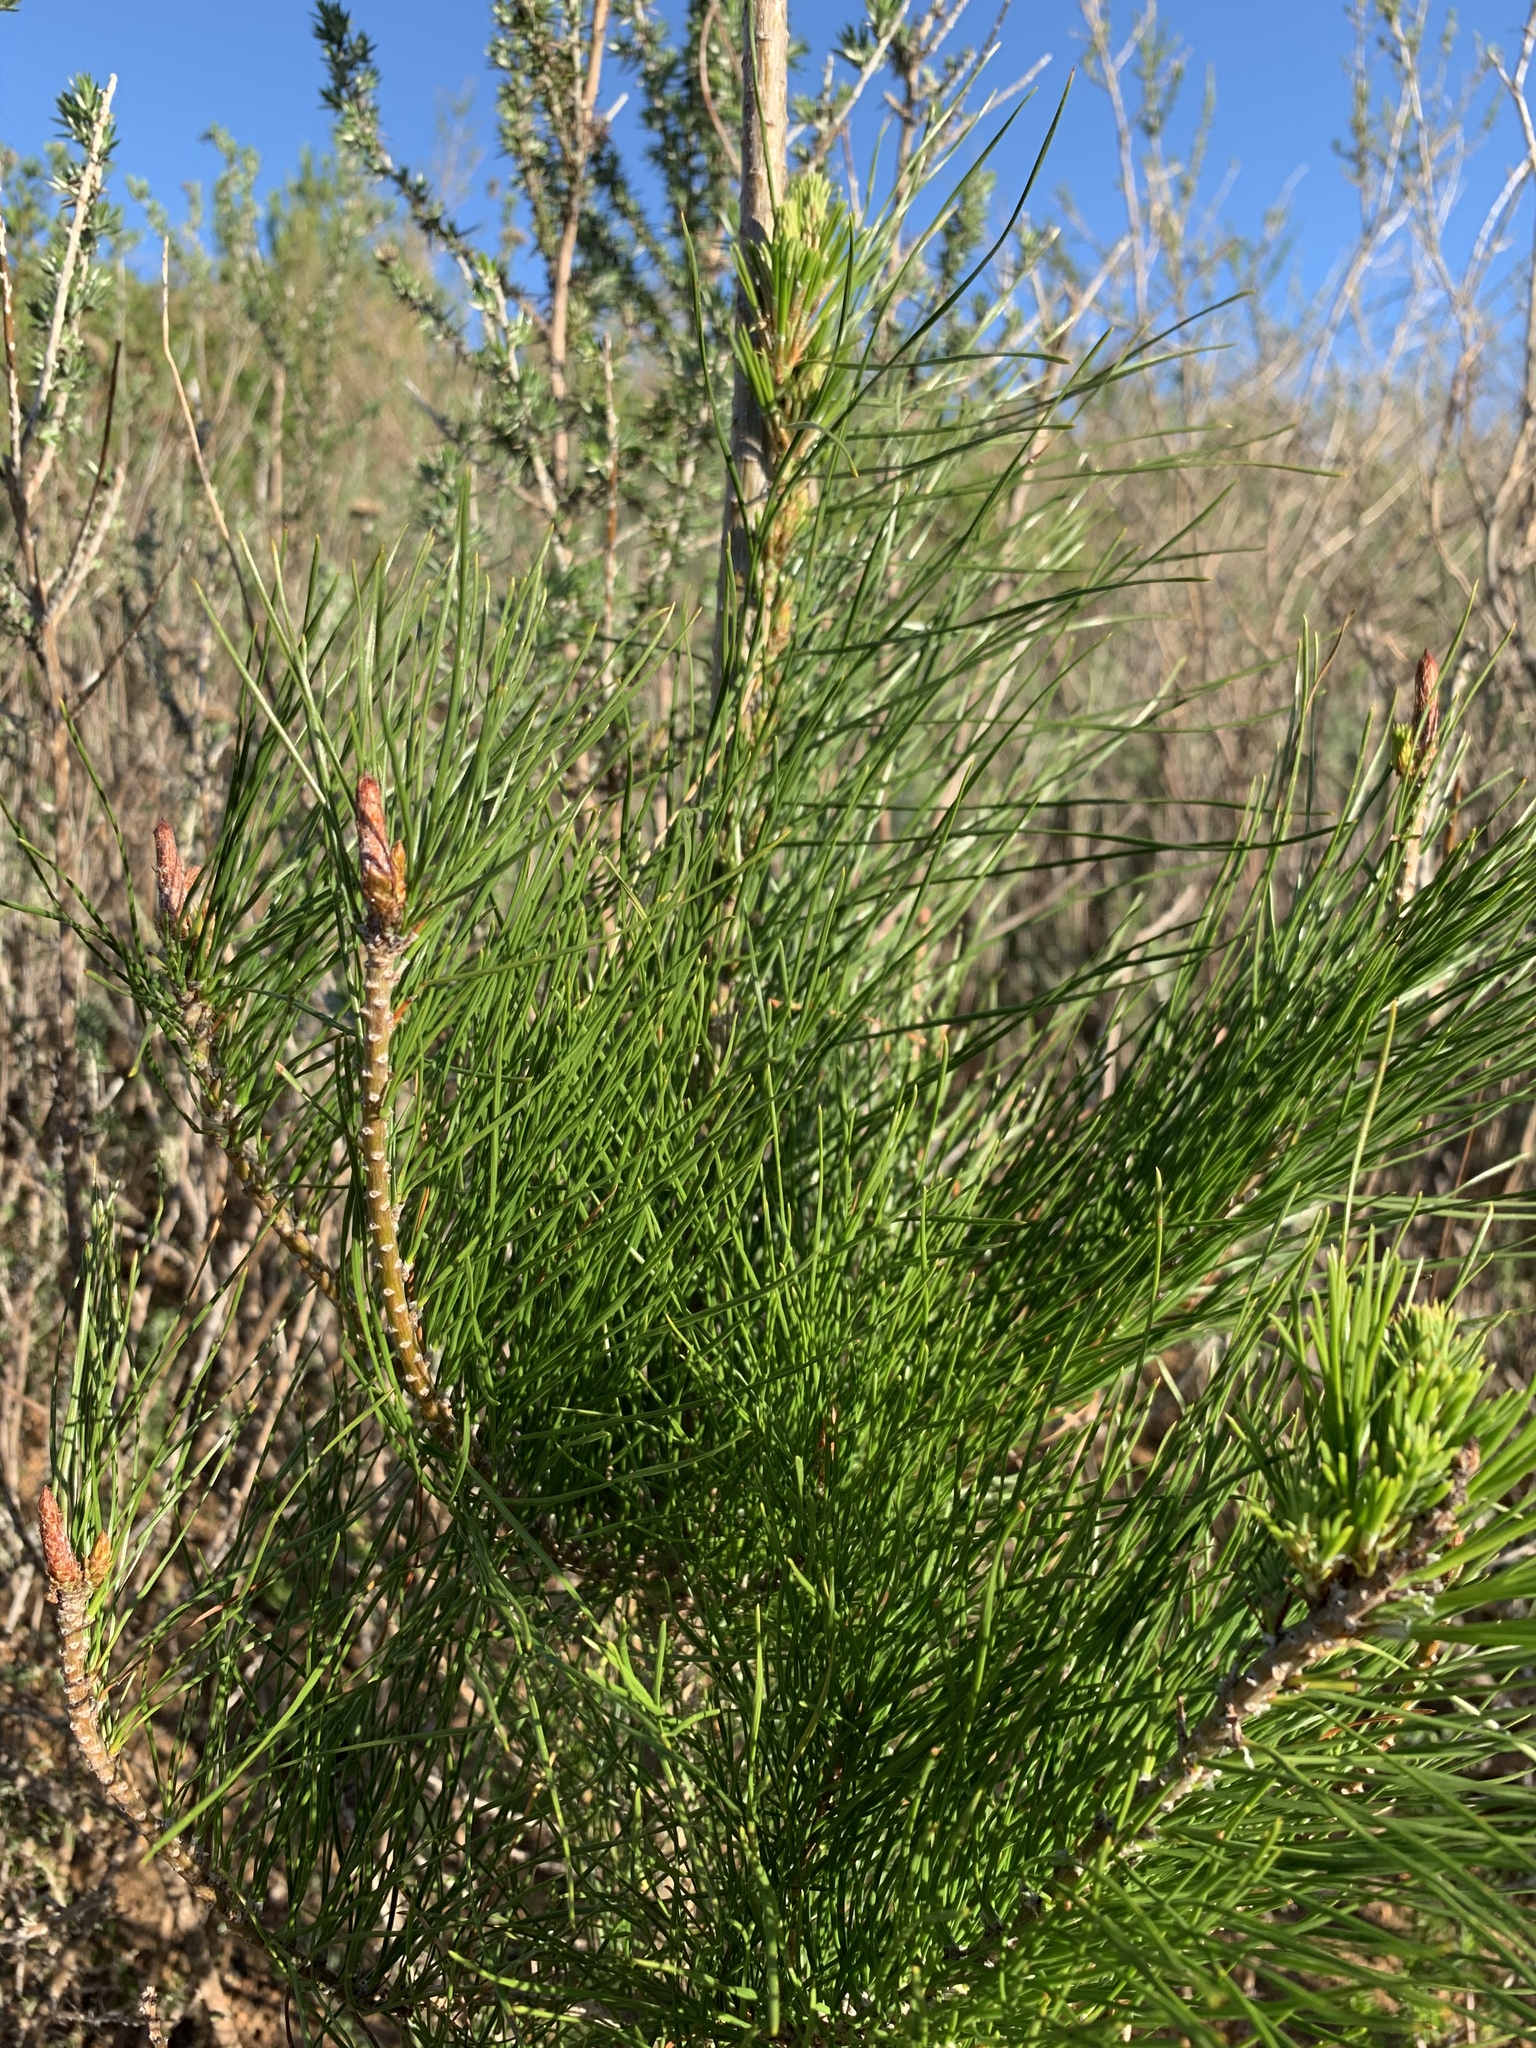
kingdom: Plantae
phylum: Tracheophyta
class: Pinopsida
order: Pinales
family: Pinaceae
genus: Pinus
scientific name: Pinus radiata
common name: Monterey pine
